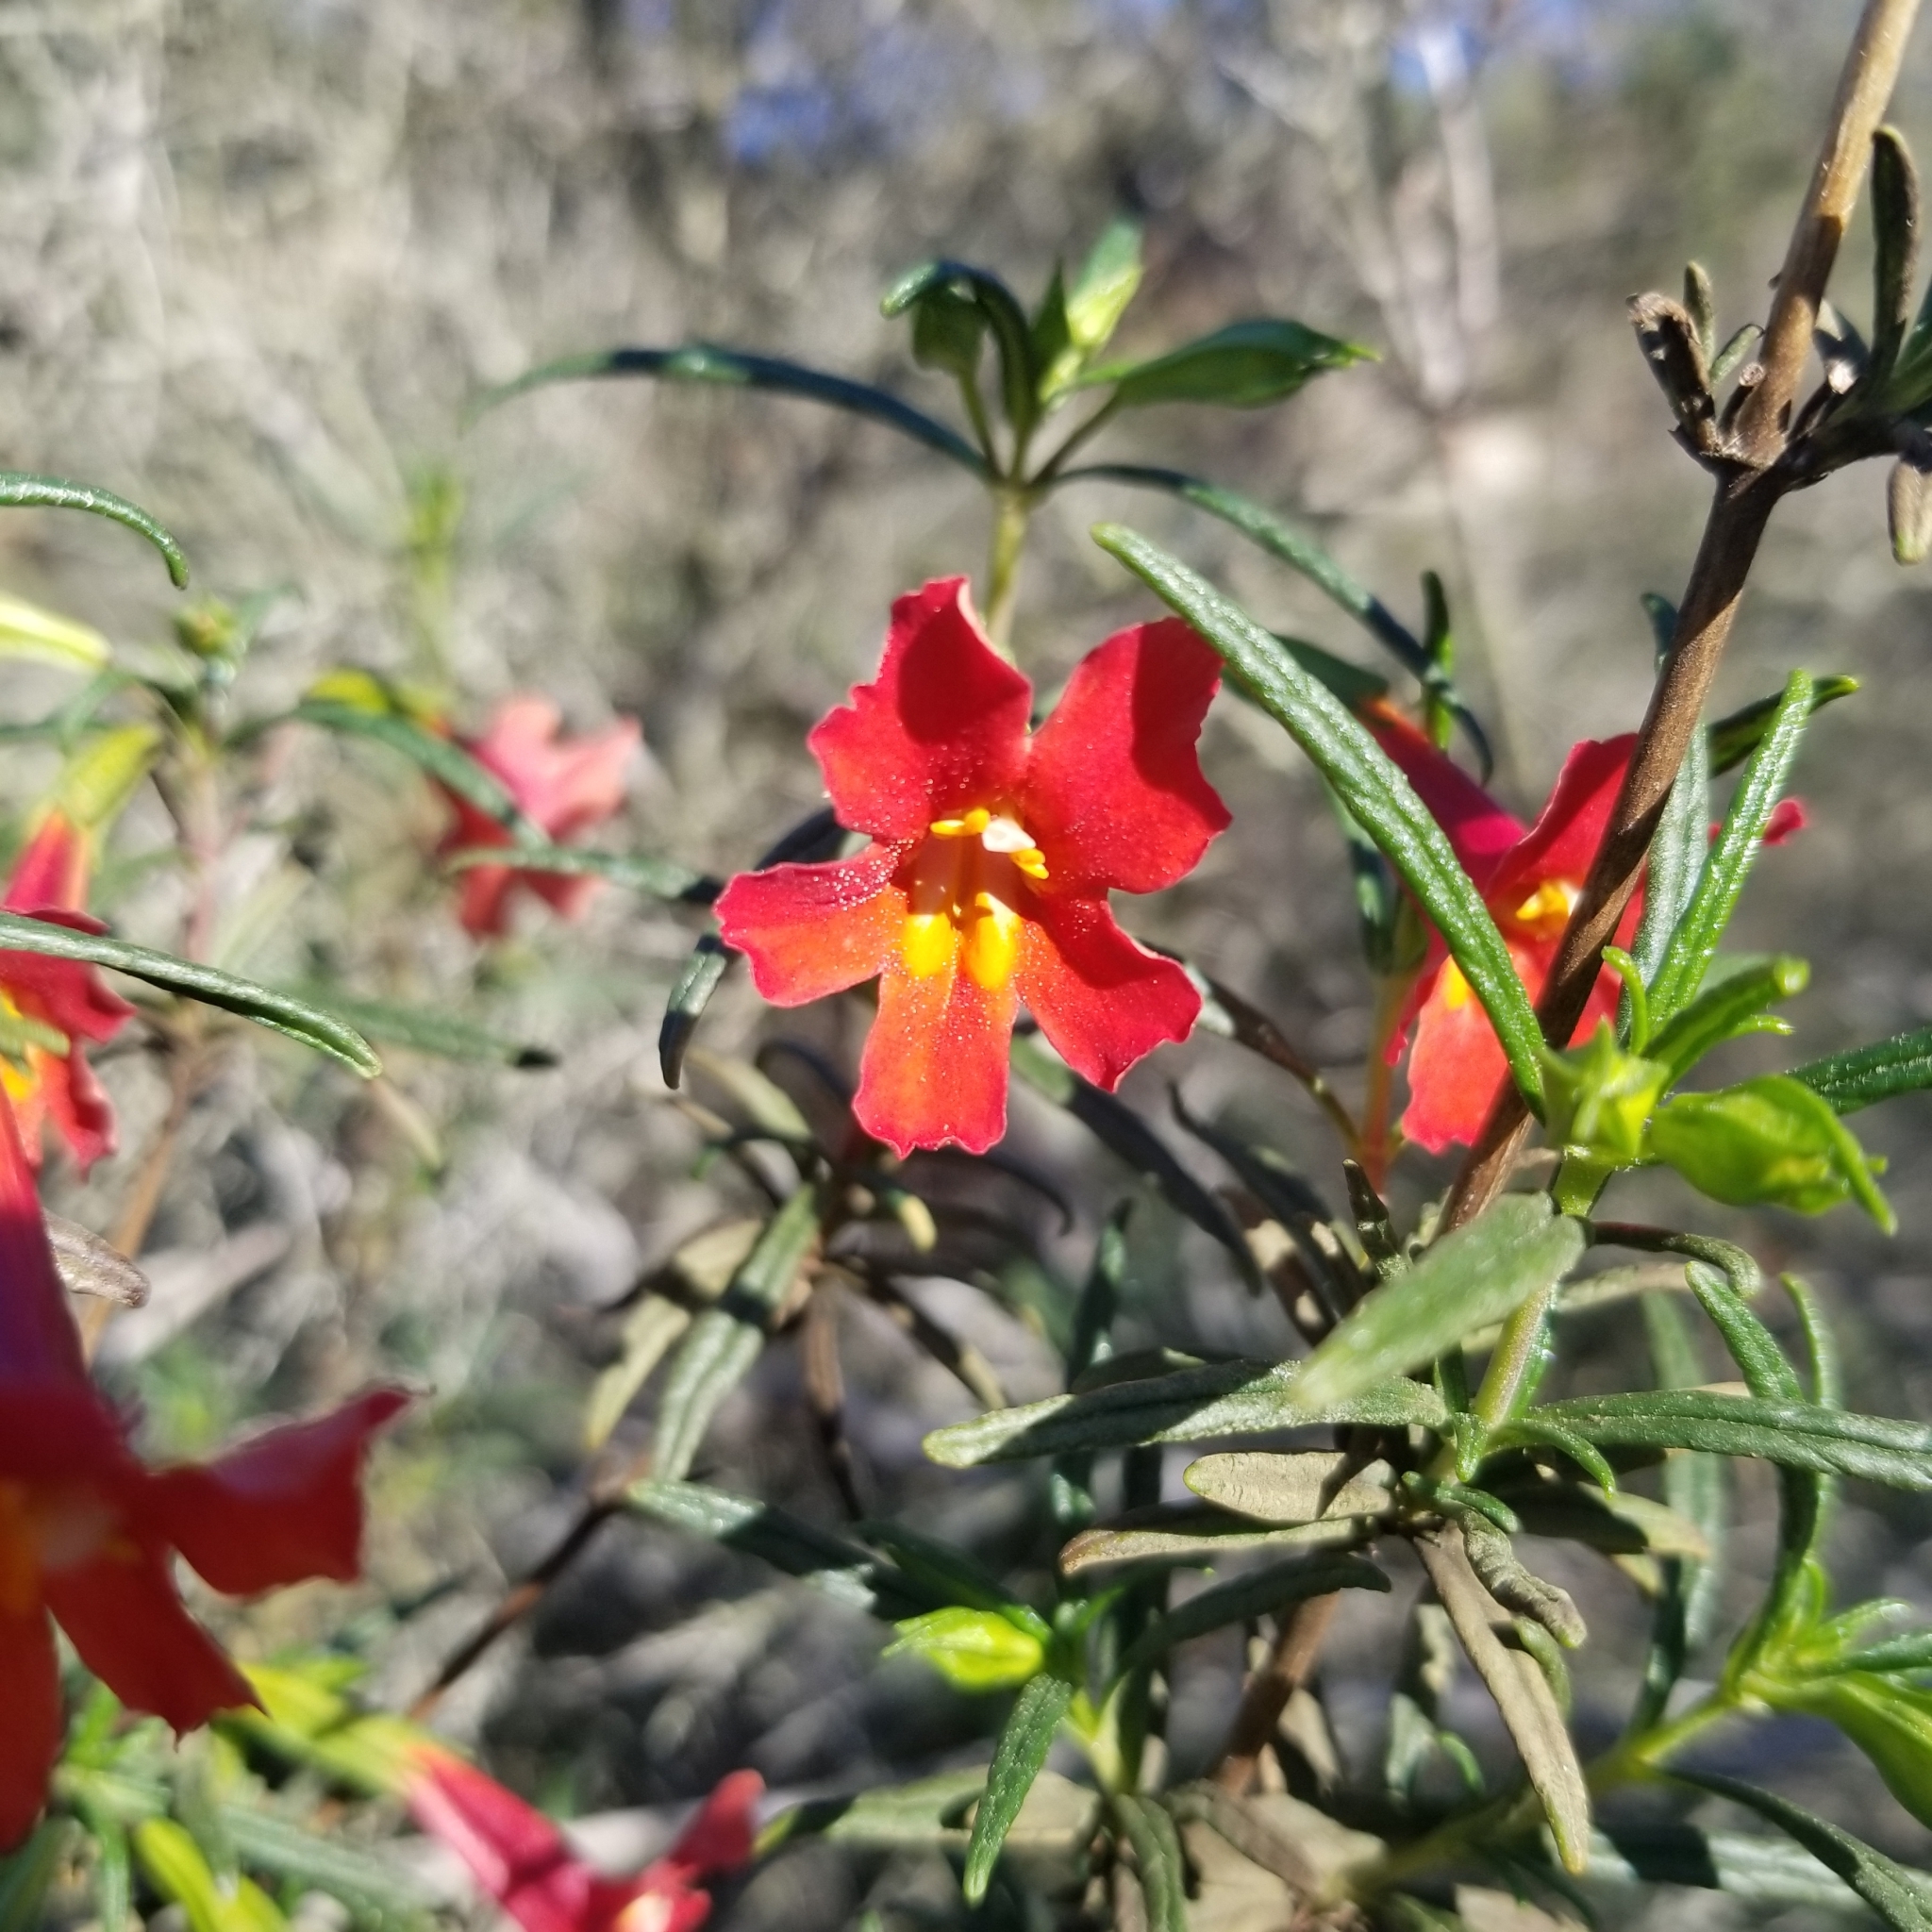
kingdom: Plantae
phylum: Tracheophyta
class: Magnoliopsida
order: Lamiales
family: Phrymaceae
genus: Diplacus
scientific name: Diplacus puniceus
